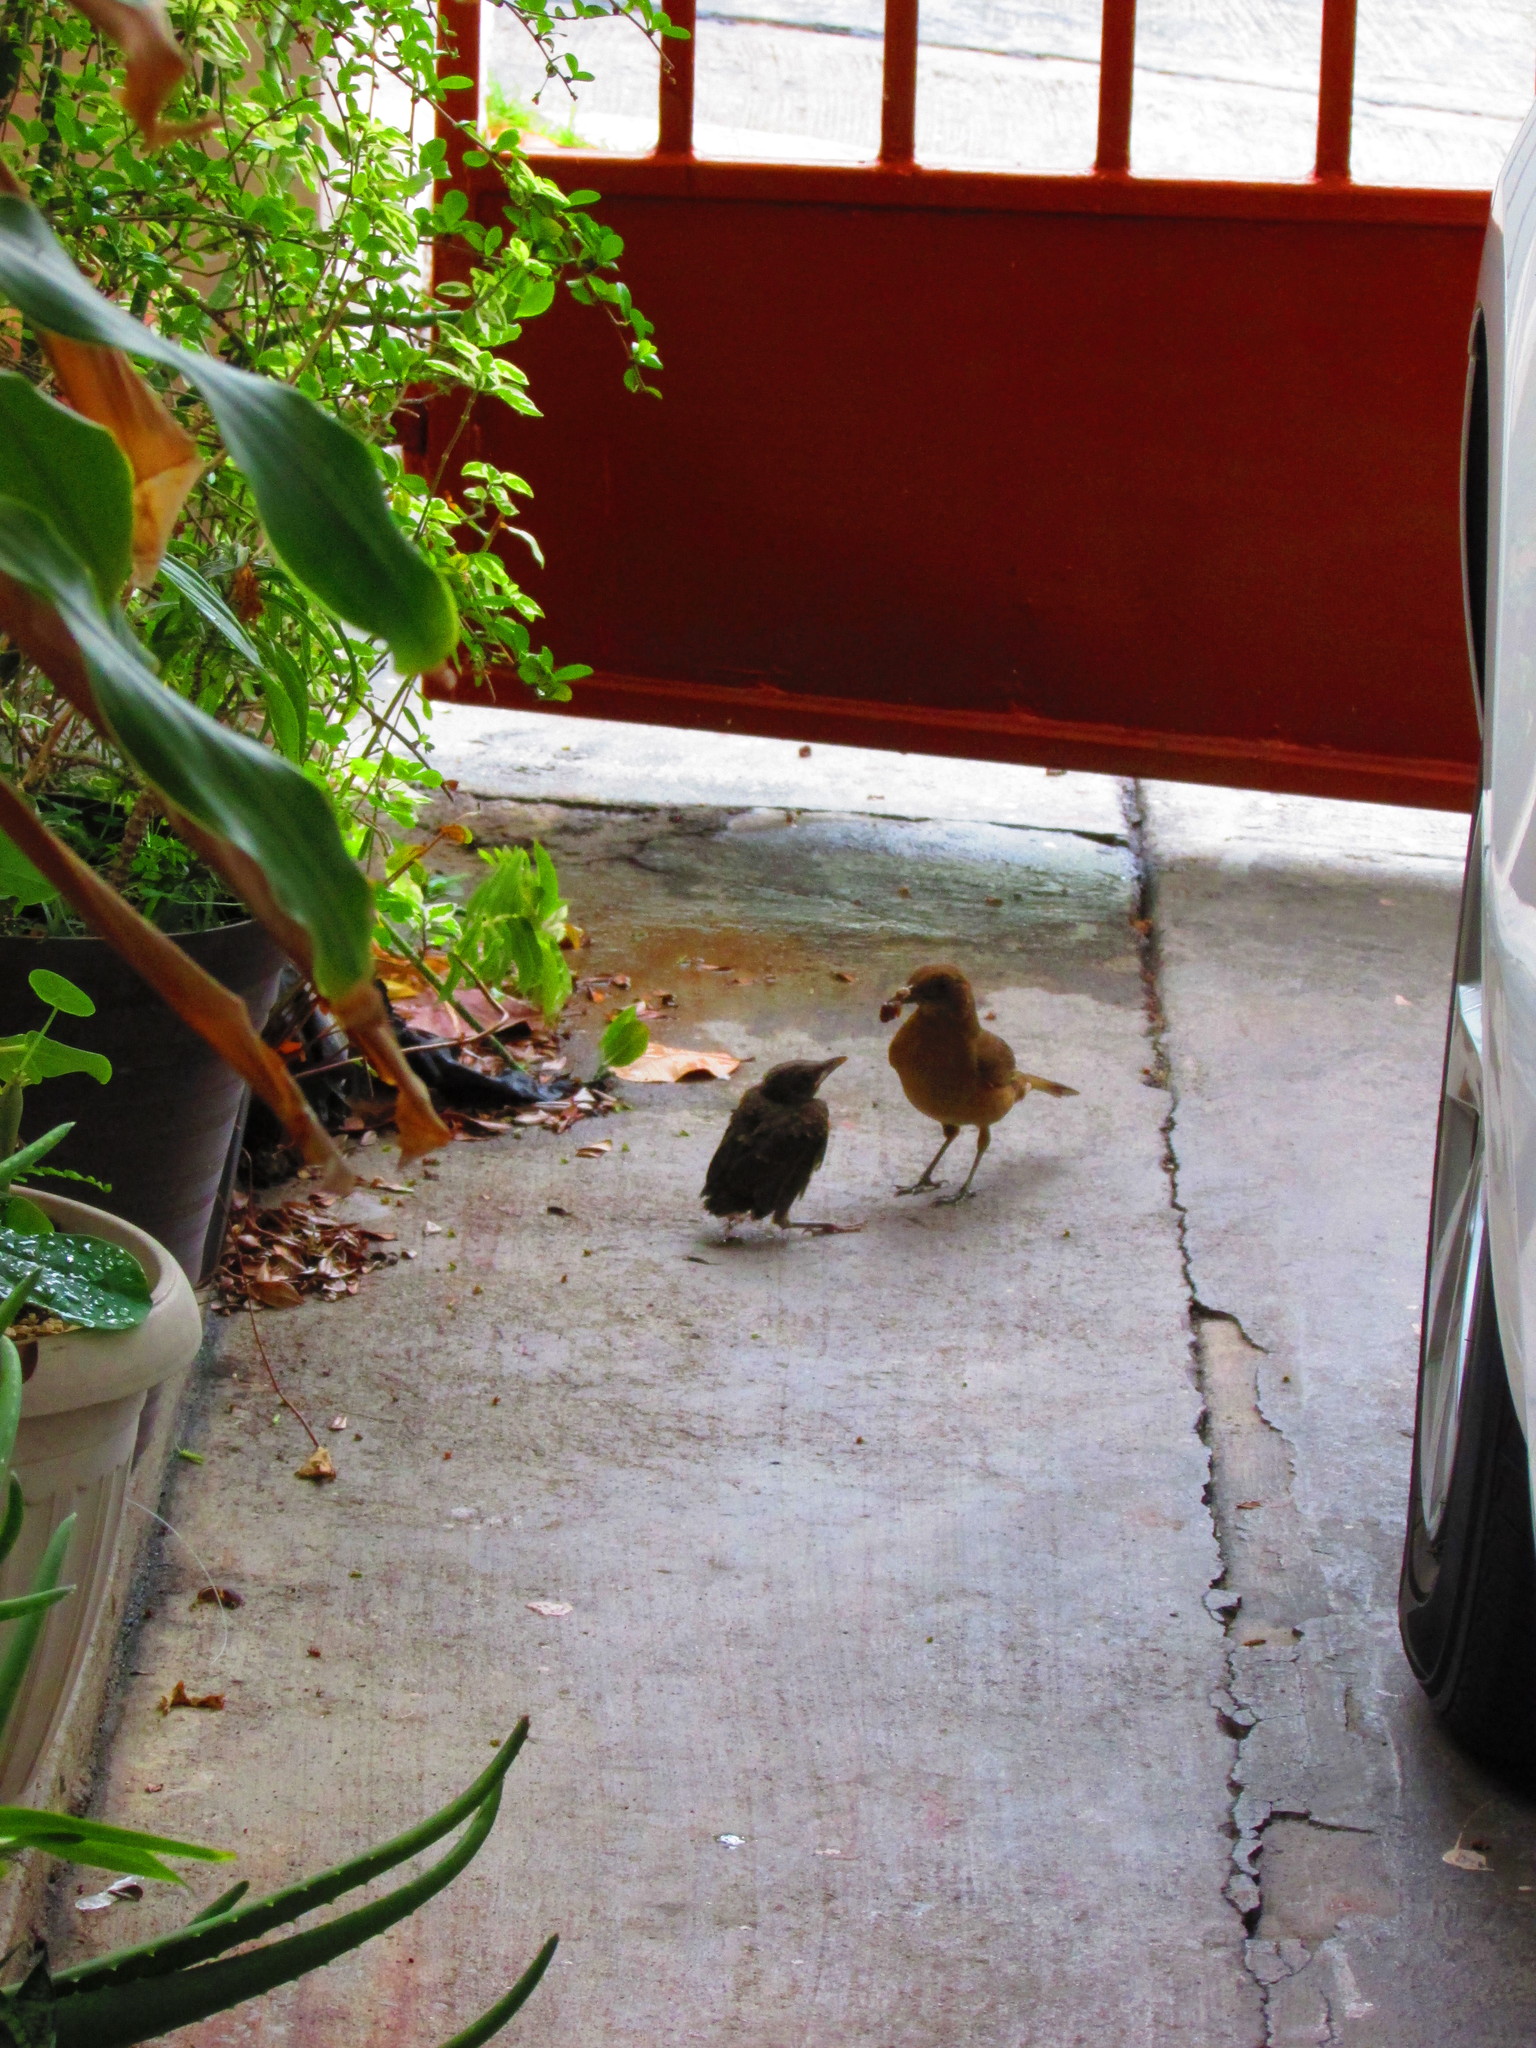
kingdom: Animalia
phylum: Chordata
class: Aves
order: Passeriformes
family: Turdidae
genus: Turdus
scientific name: Turdus grayi
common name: Clay-colored thrush
